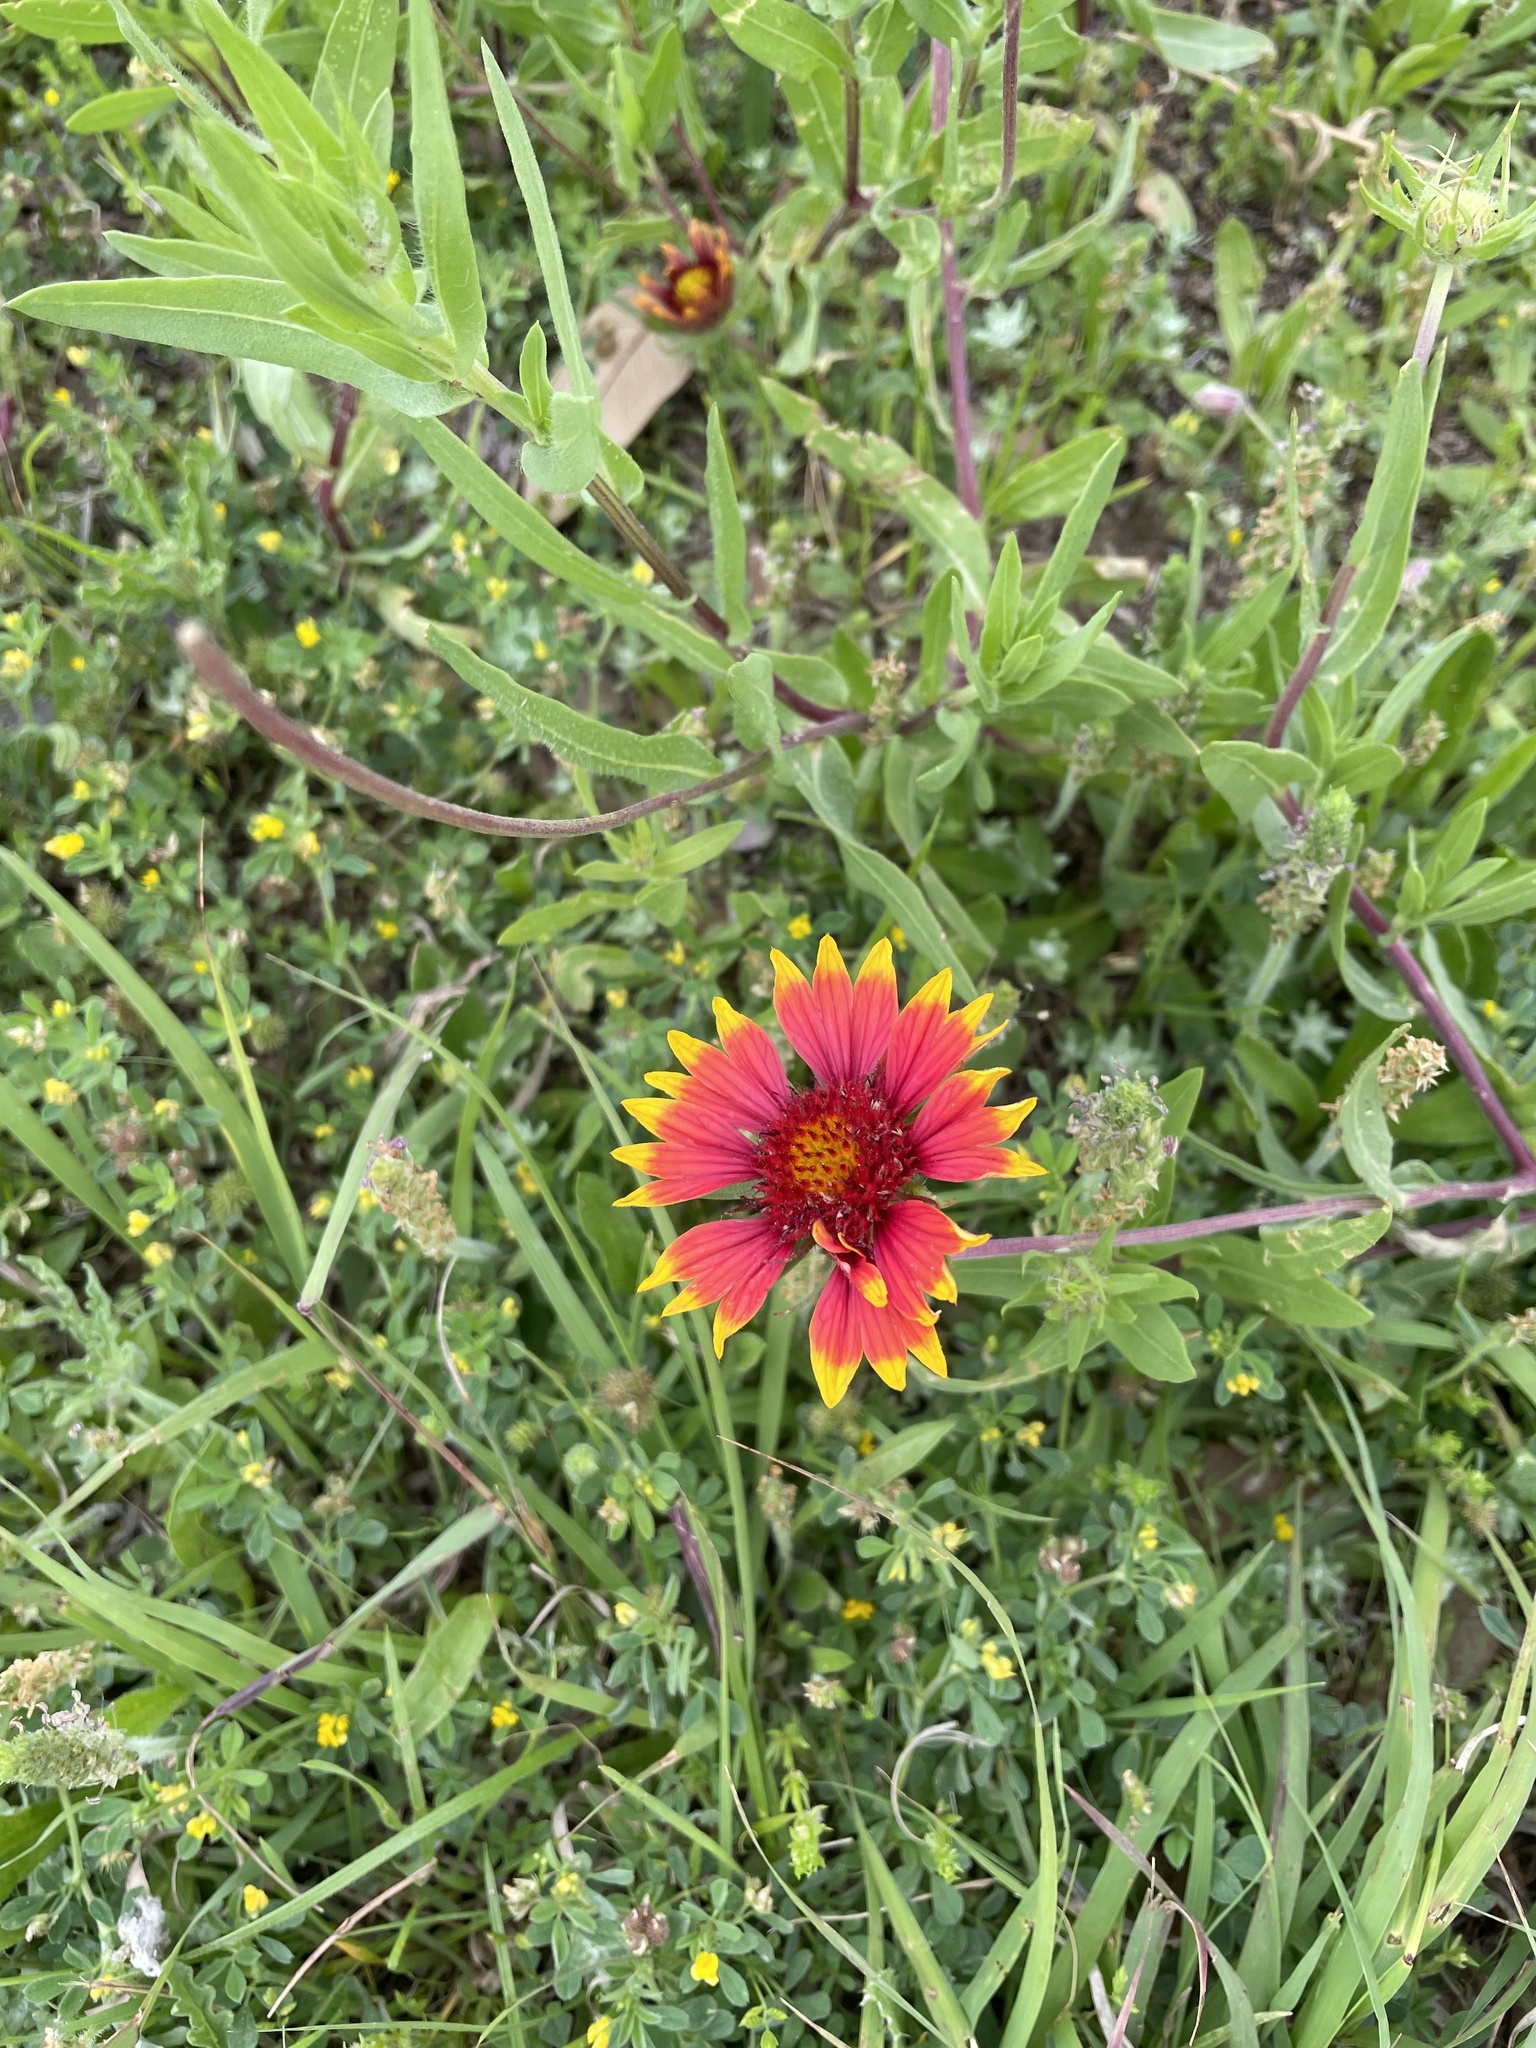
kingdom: Plantae
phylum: Tracheophyta
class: Magnoliopsida
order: Asterales
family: Asteraceae
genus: Gaillardia
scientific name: Gaillardia pulchella
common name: Firewheel
